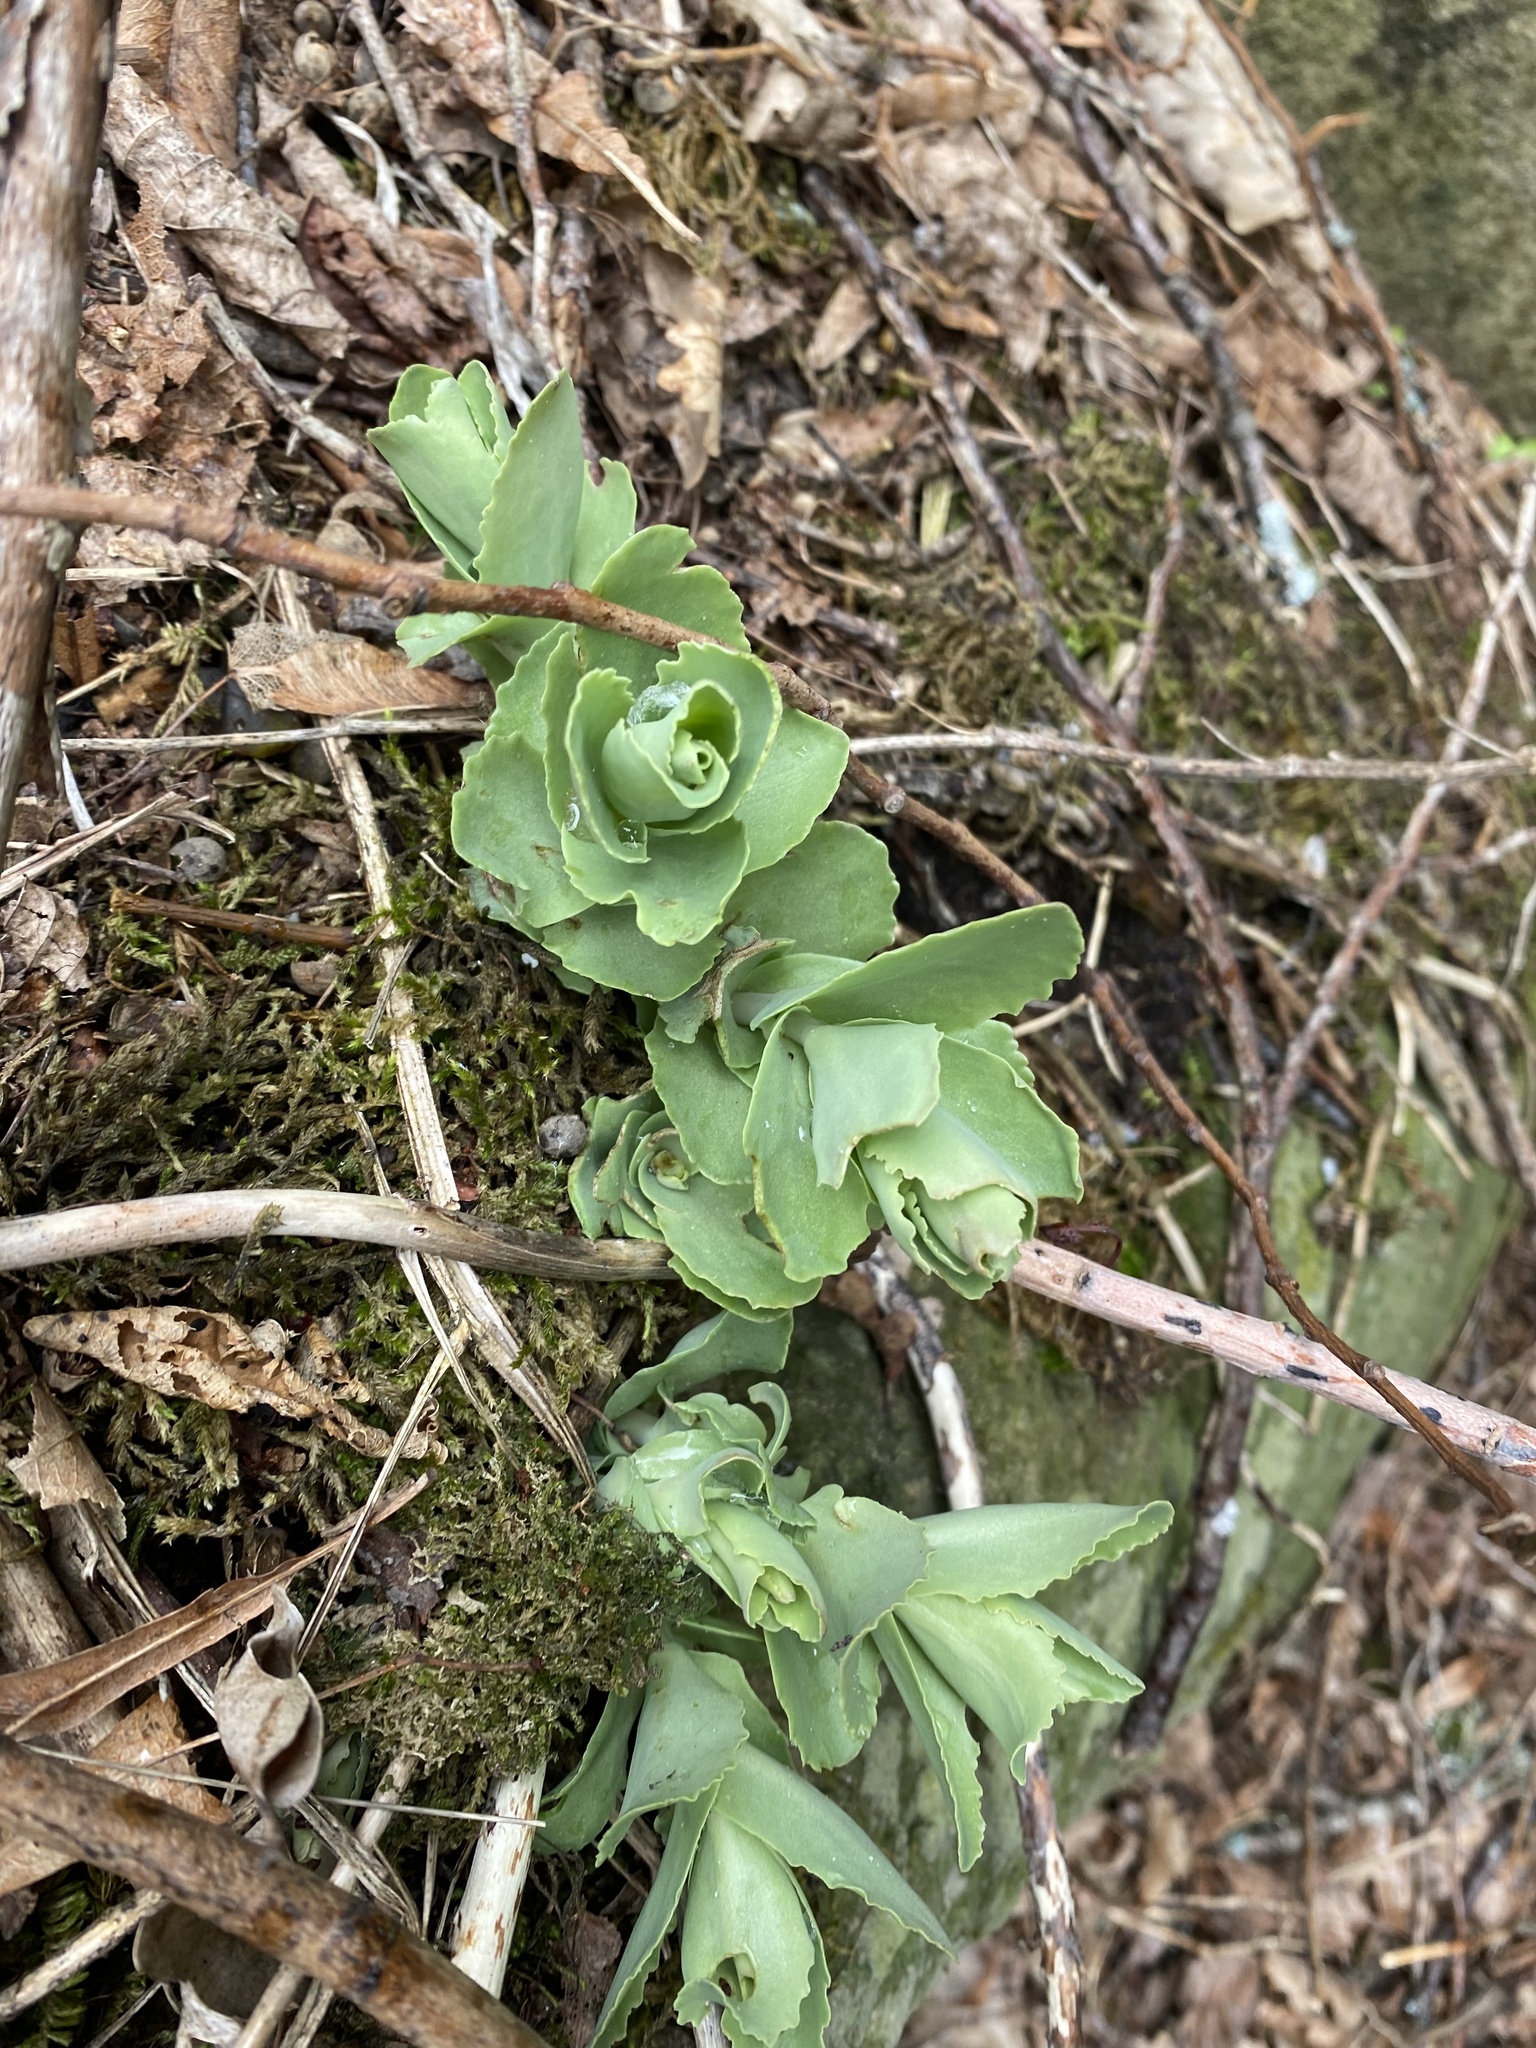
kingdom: Plantae
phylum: Tracheophyta
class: Magnoliopsida
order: Saxifragales
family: Crassulaceae
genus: Hylotelephium
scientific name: Hylotelephium maximum
